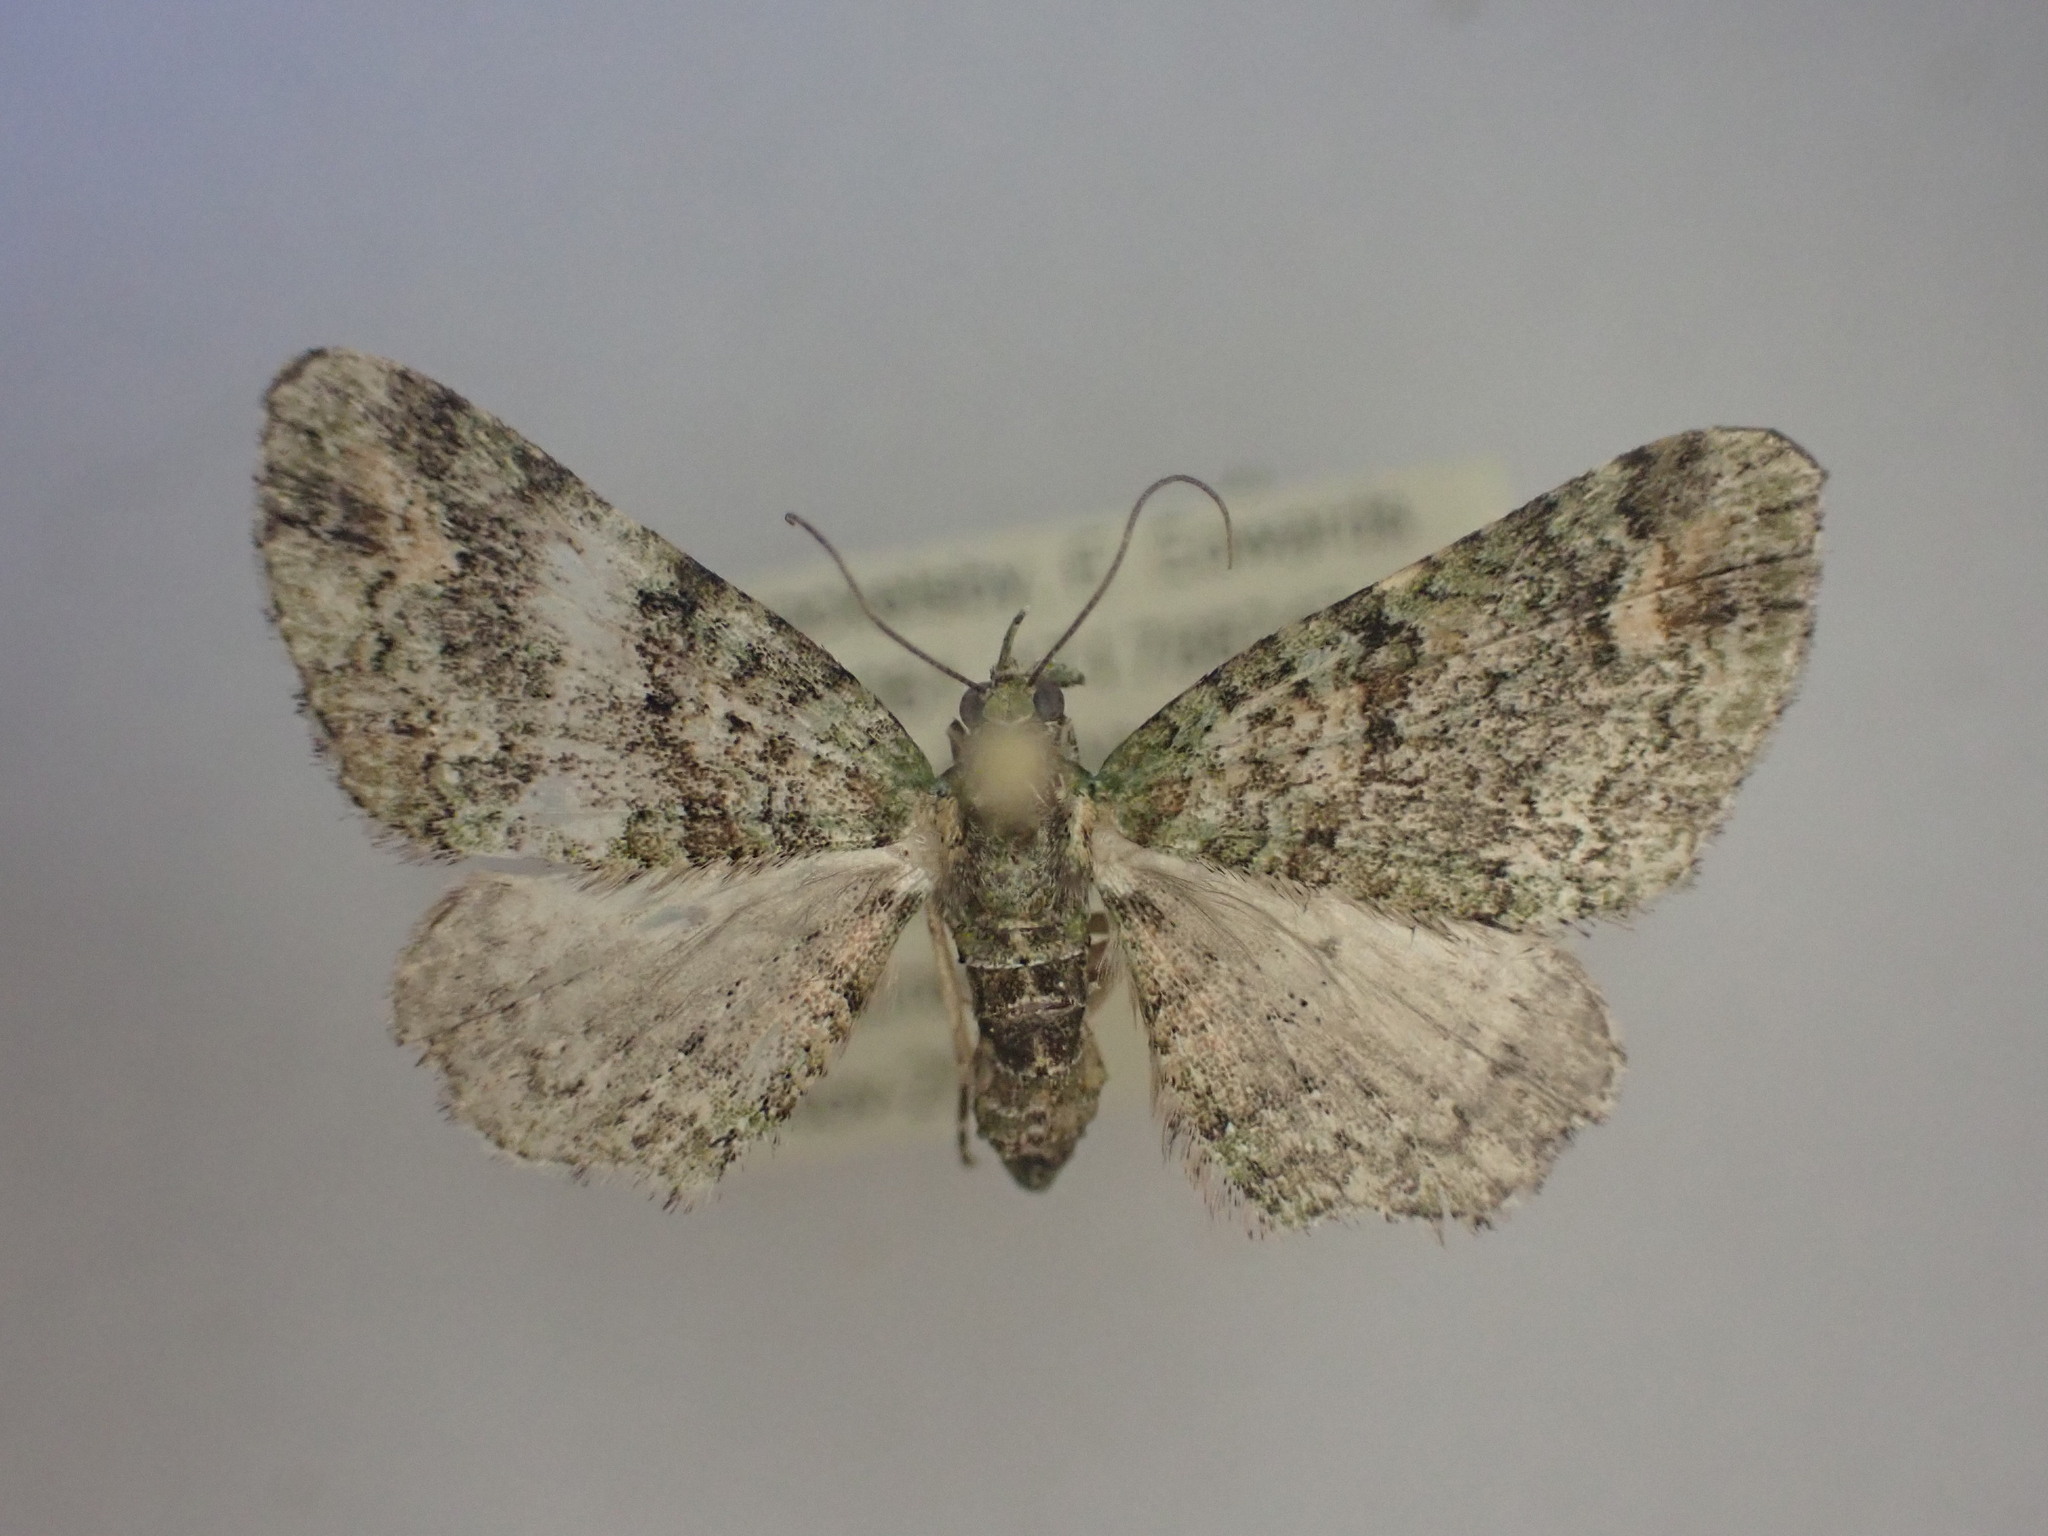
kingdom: Animalia
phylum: Arthropoda
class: Insecta
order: Lepidoptera
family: Geometridae
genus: Idaea
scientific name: Idaea mutanda
